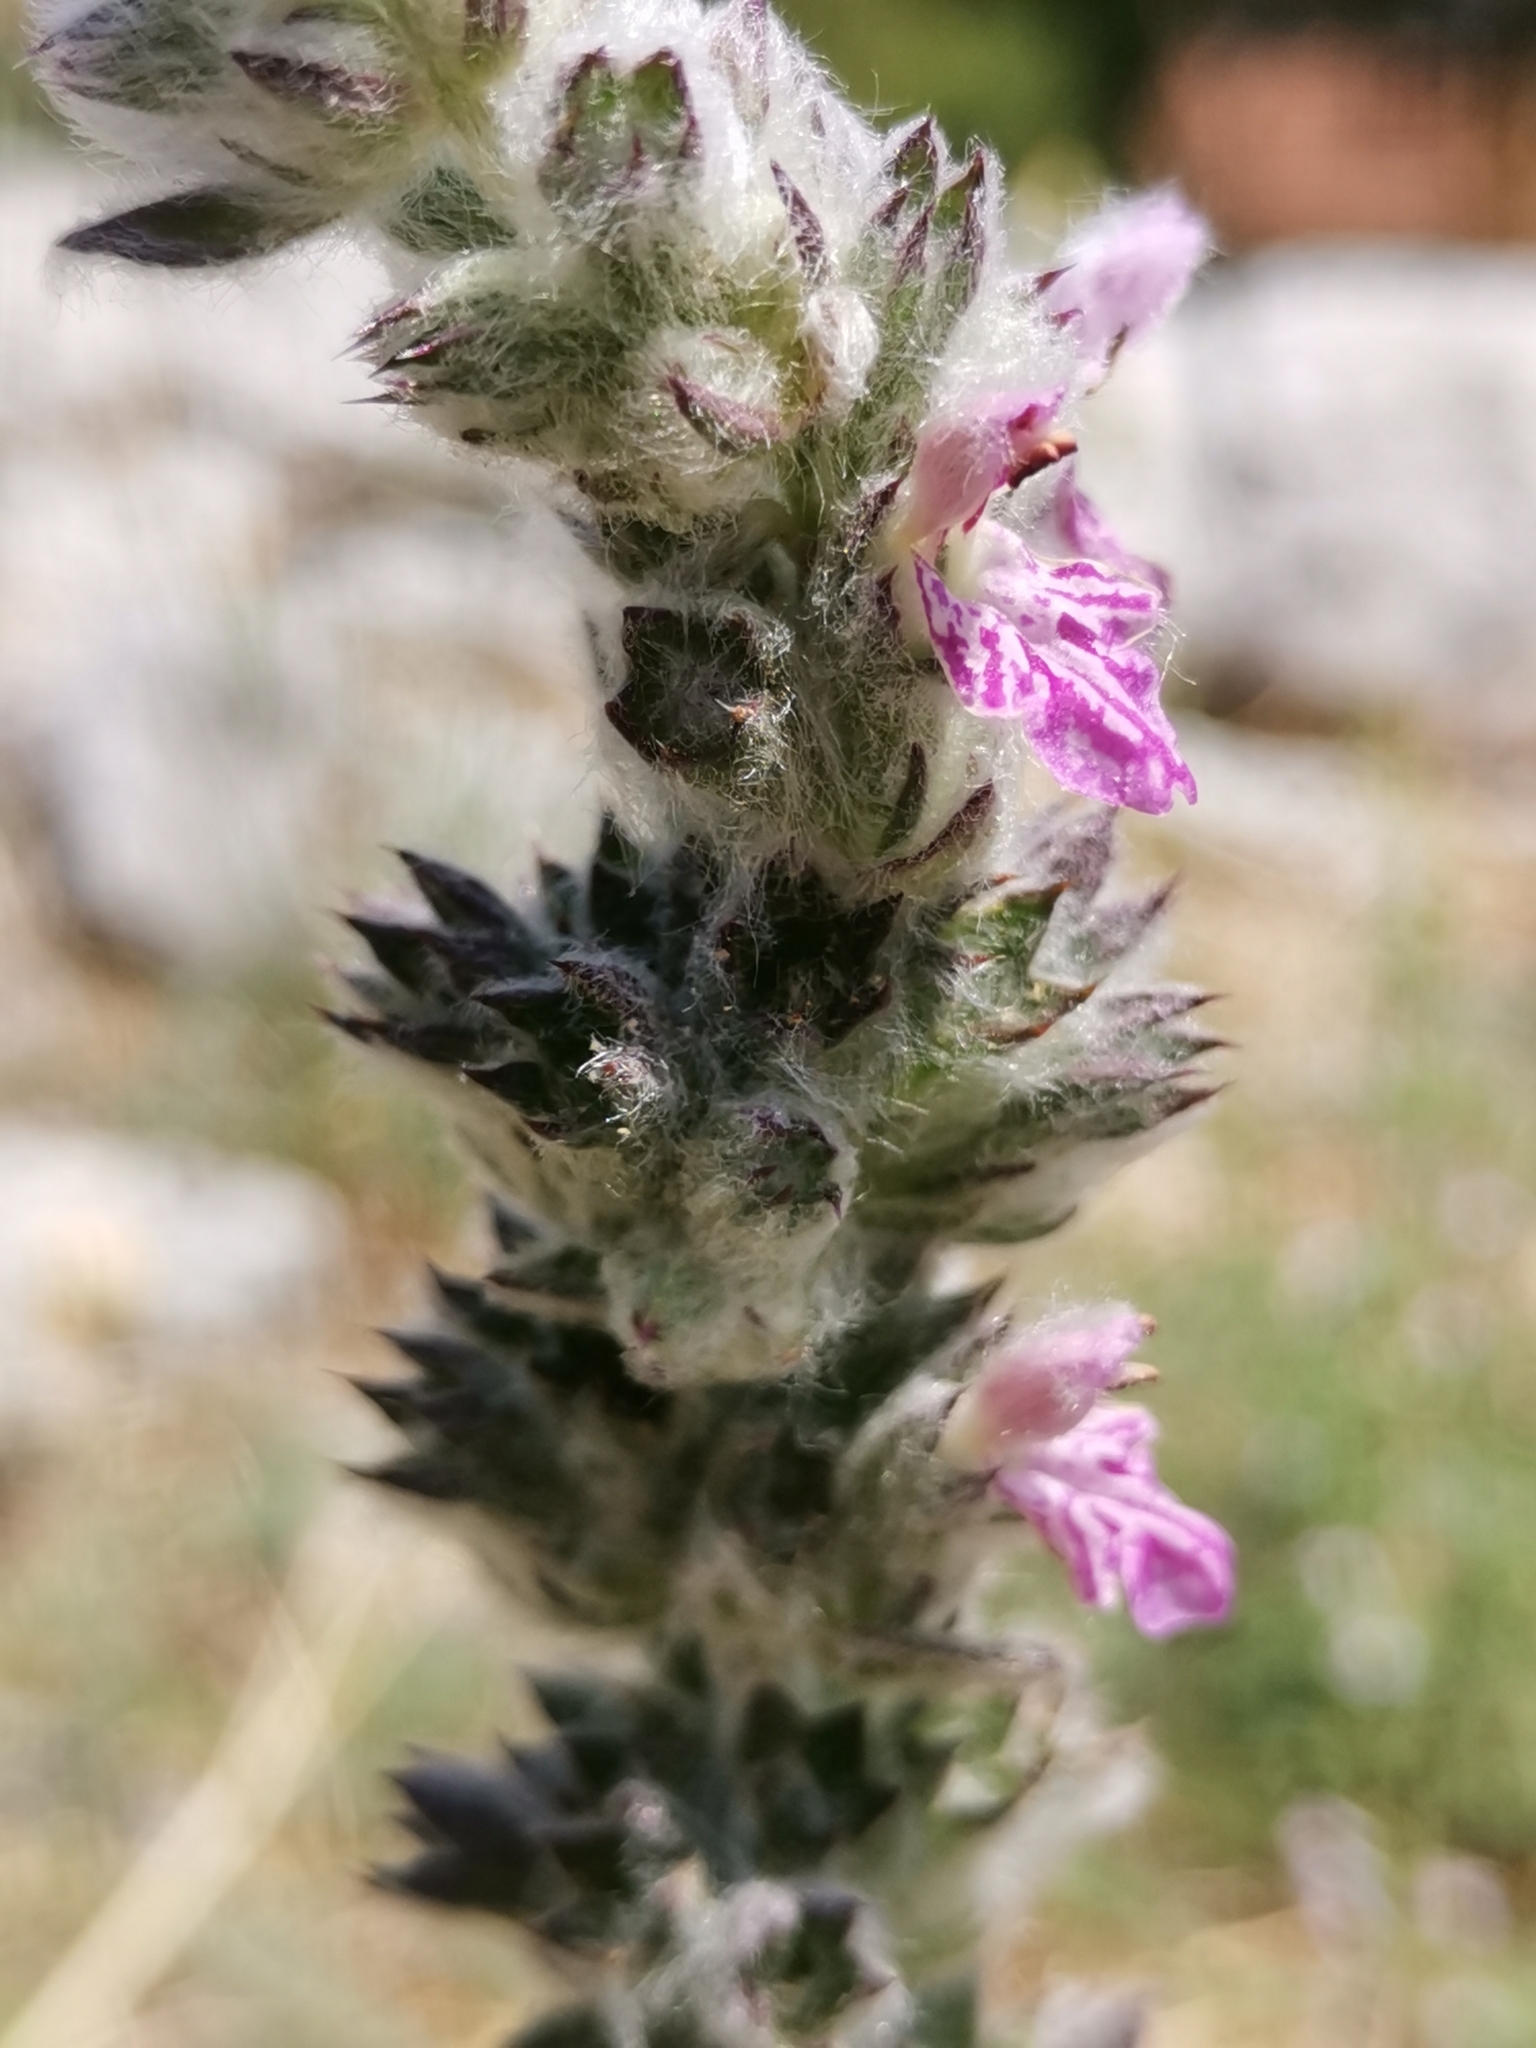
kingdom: Plantae
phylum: Tracheophyta
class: Magnoliopsida
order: Lamiales
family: Lamiaceae
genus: Stachys
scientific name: Stachys byzantina
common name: Lamb's-ear
